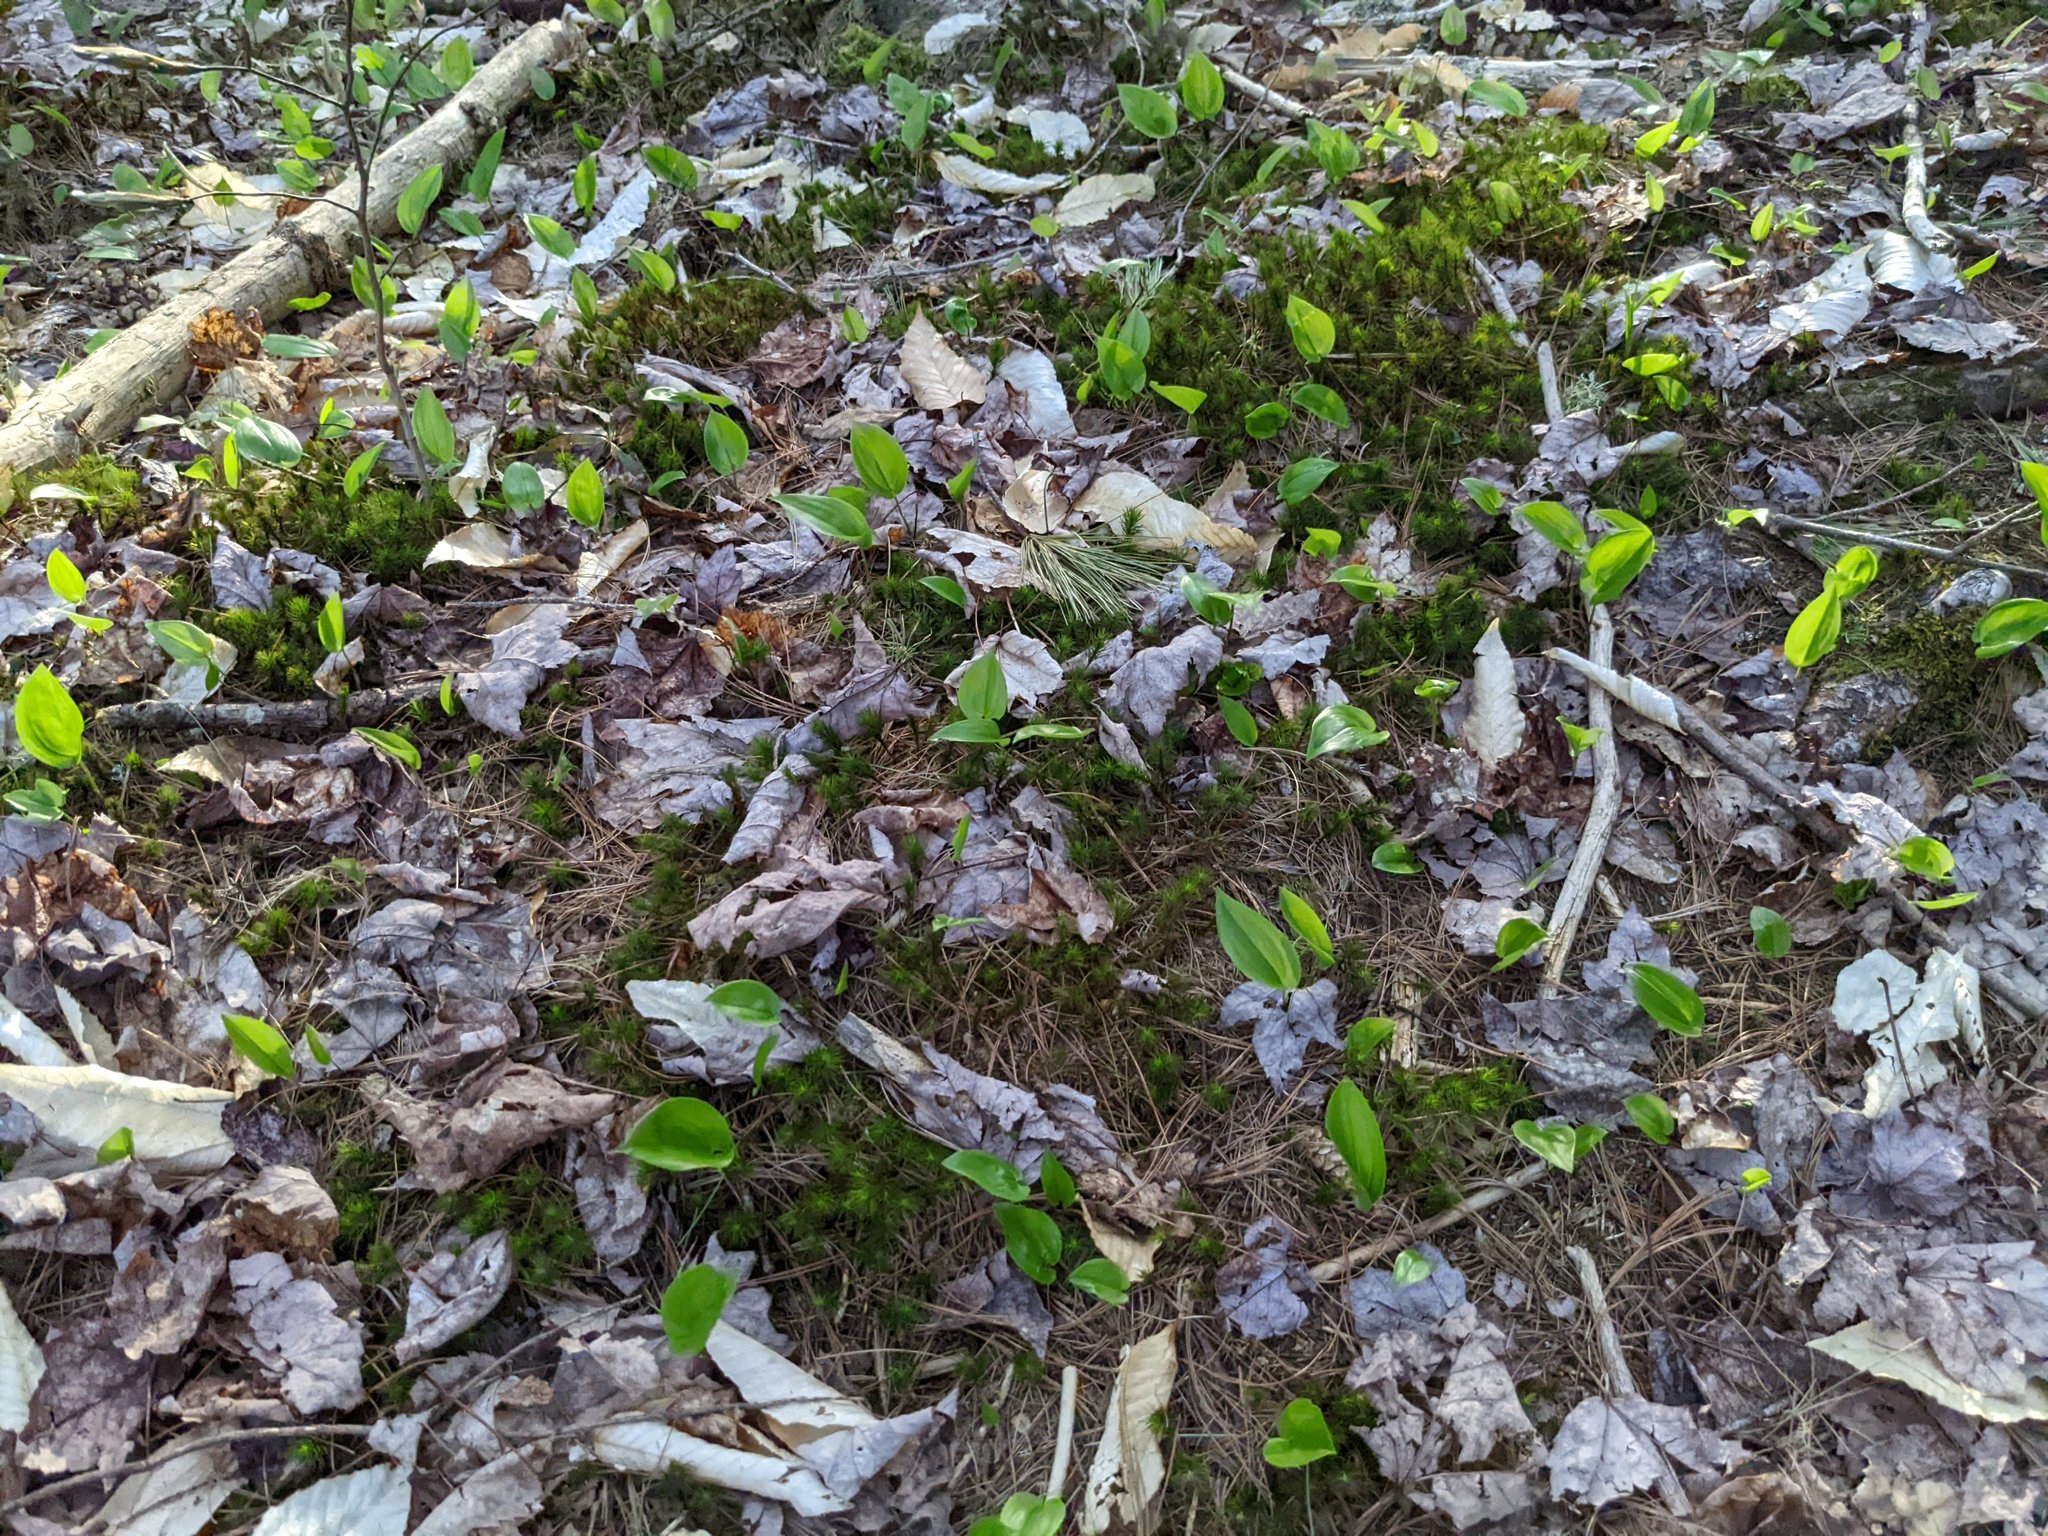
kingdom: Plantae
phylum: Tracheophyta
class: Liliopsida
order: Asparagales
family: Asparagaceae
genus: Maianthemum
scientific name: Maianthemum canadense
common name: False lily-of-the-valley
